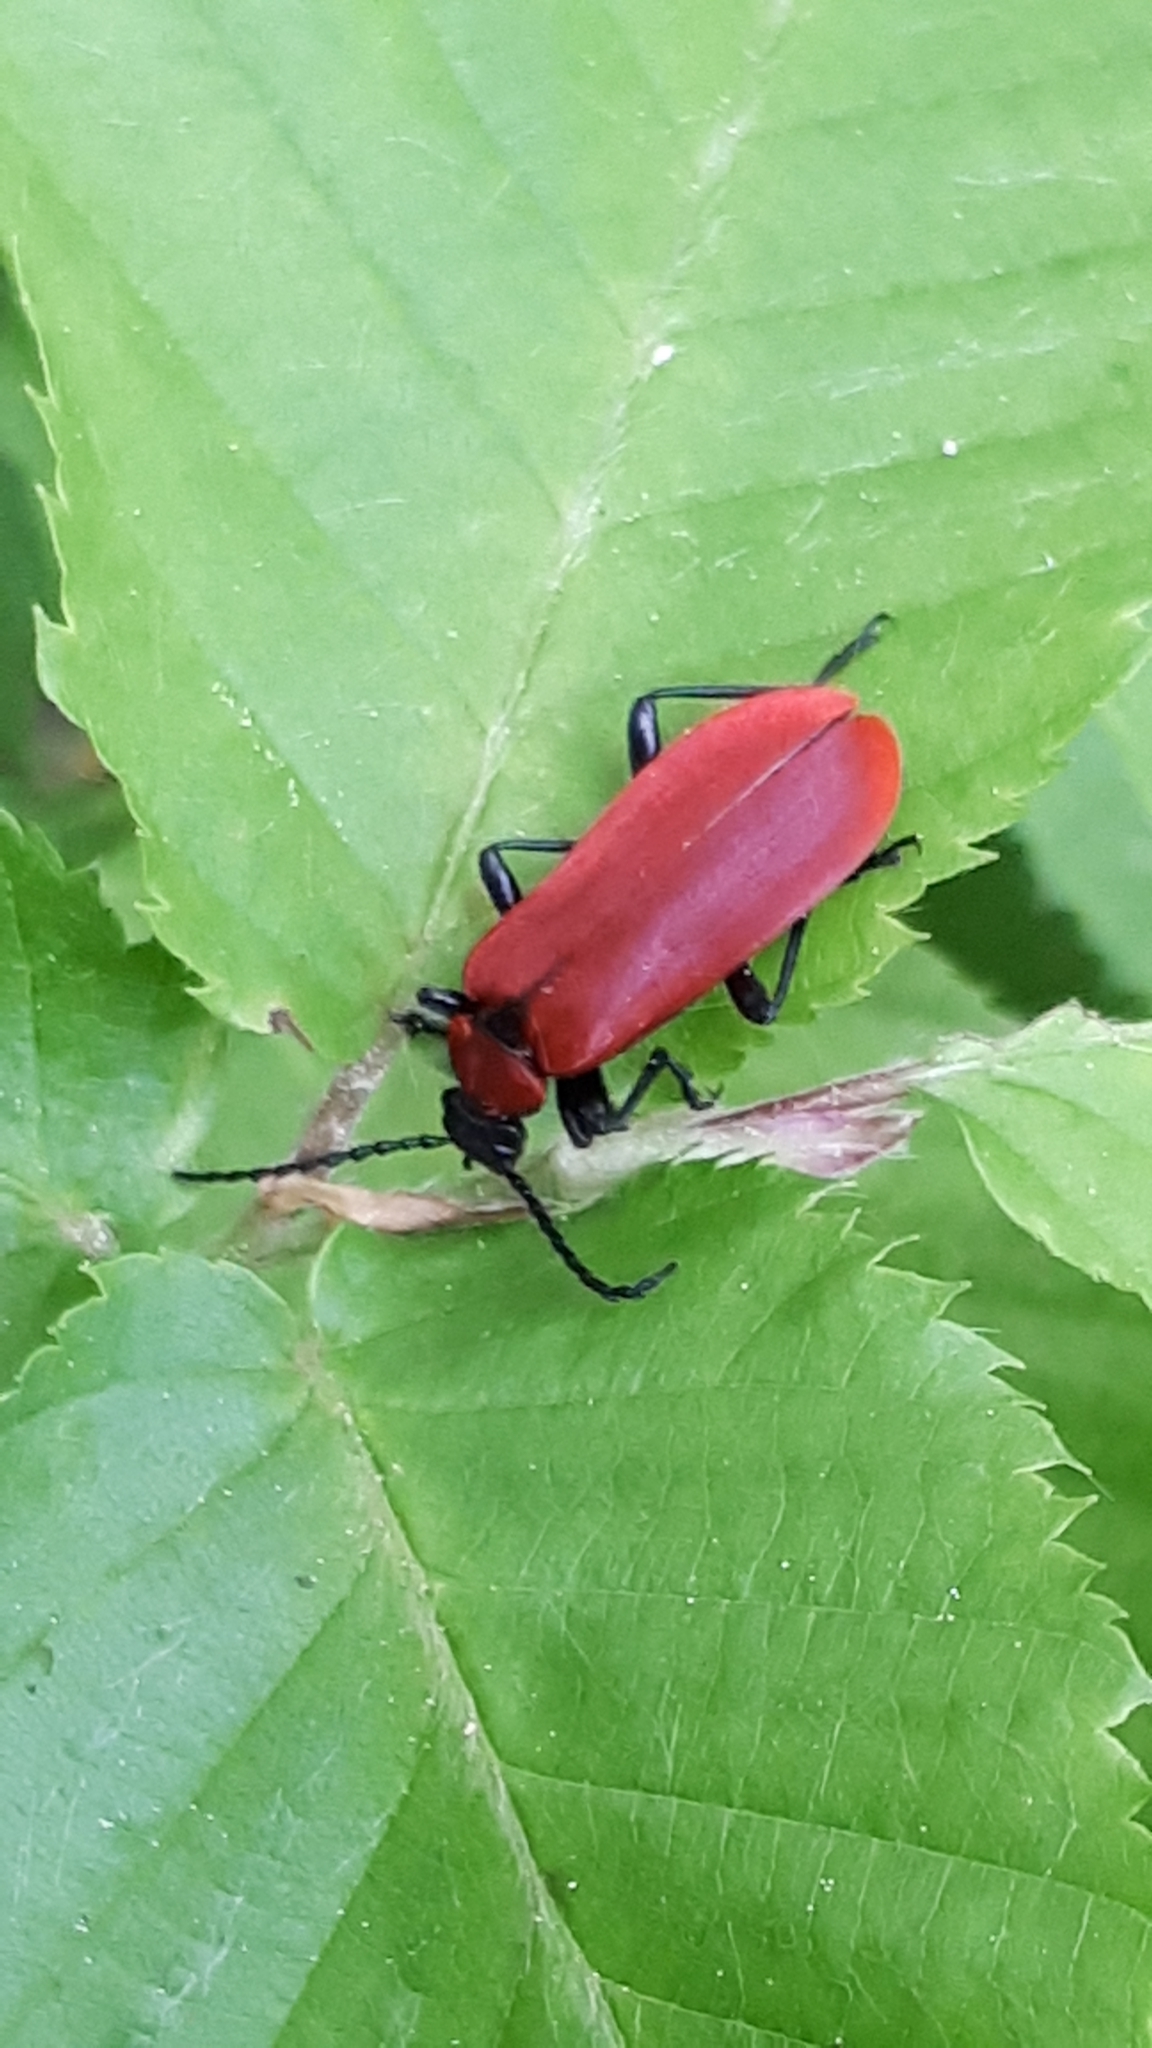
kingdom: Animalia
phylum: Arthropoda
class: Insecta
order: Coleoptera
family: Pyrochroidae
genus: Pyrochroa
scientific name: Pyrochroa coccinea
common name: Black-headed cardinal beetle
